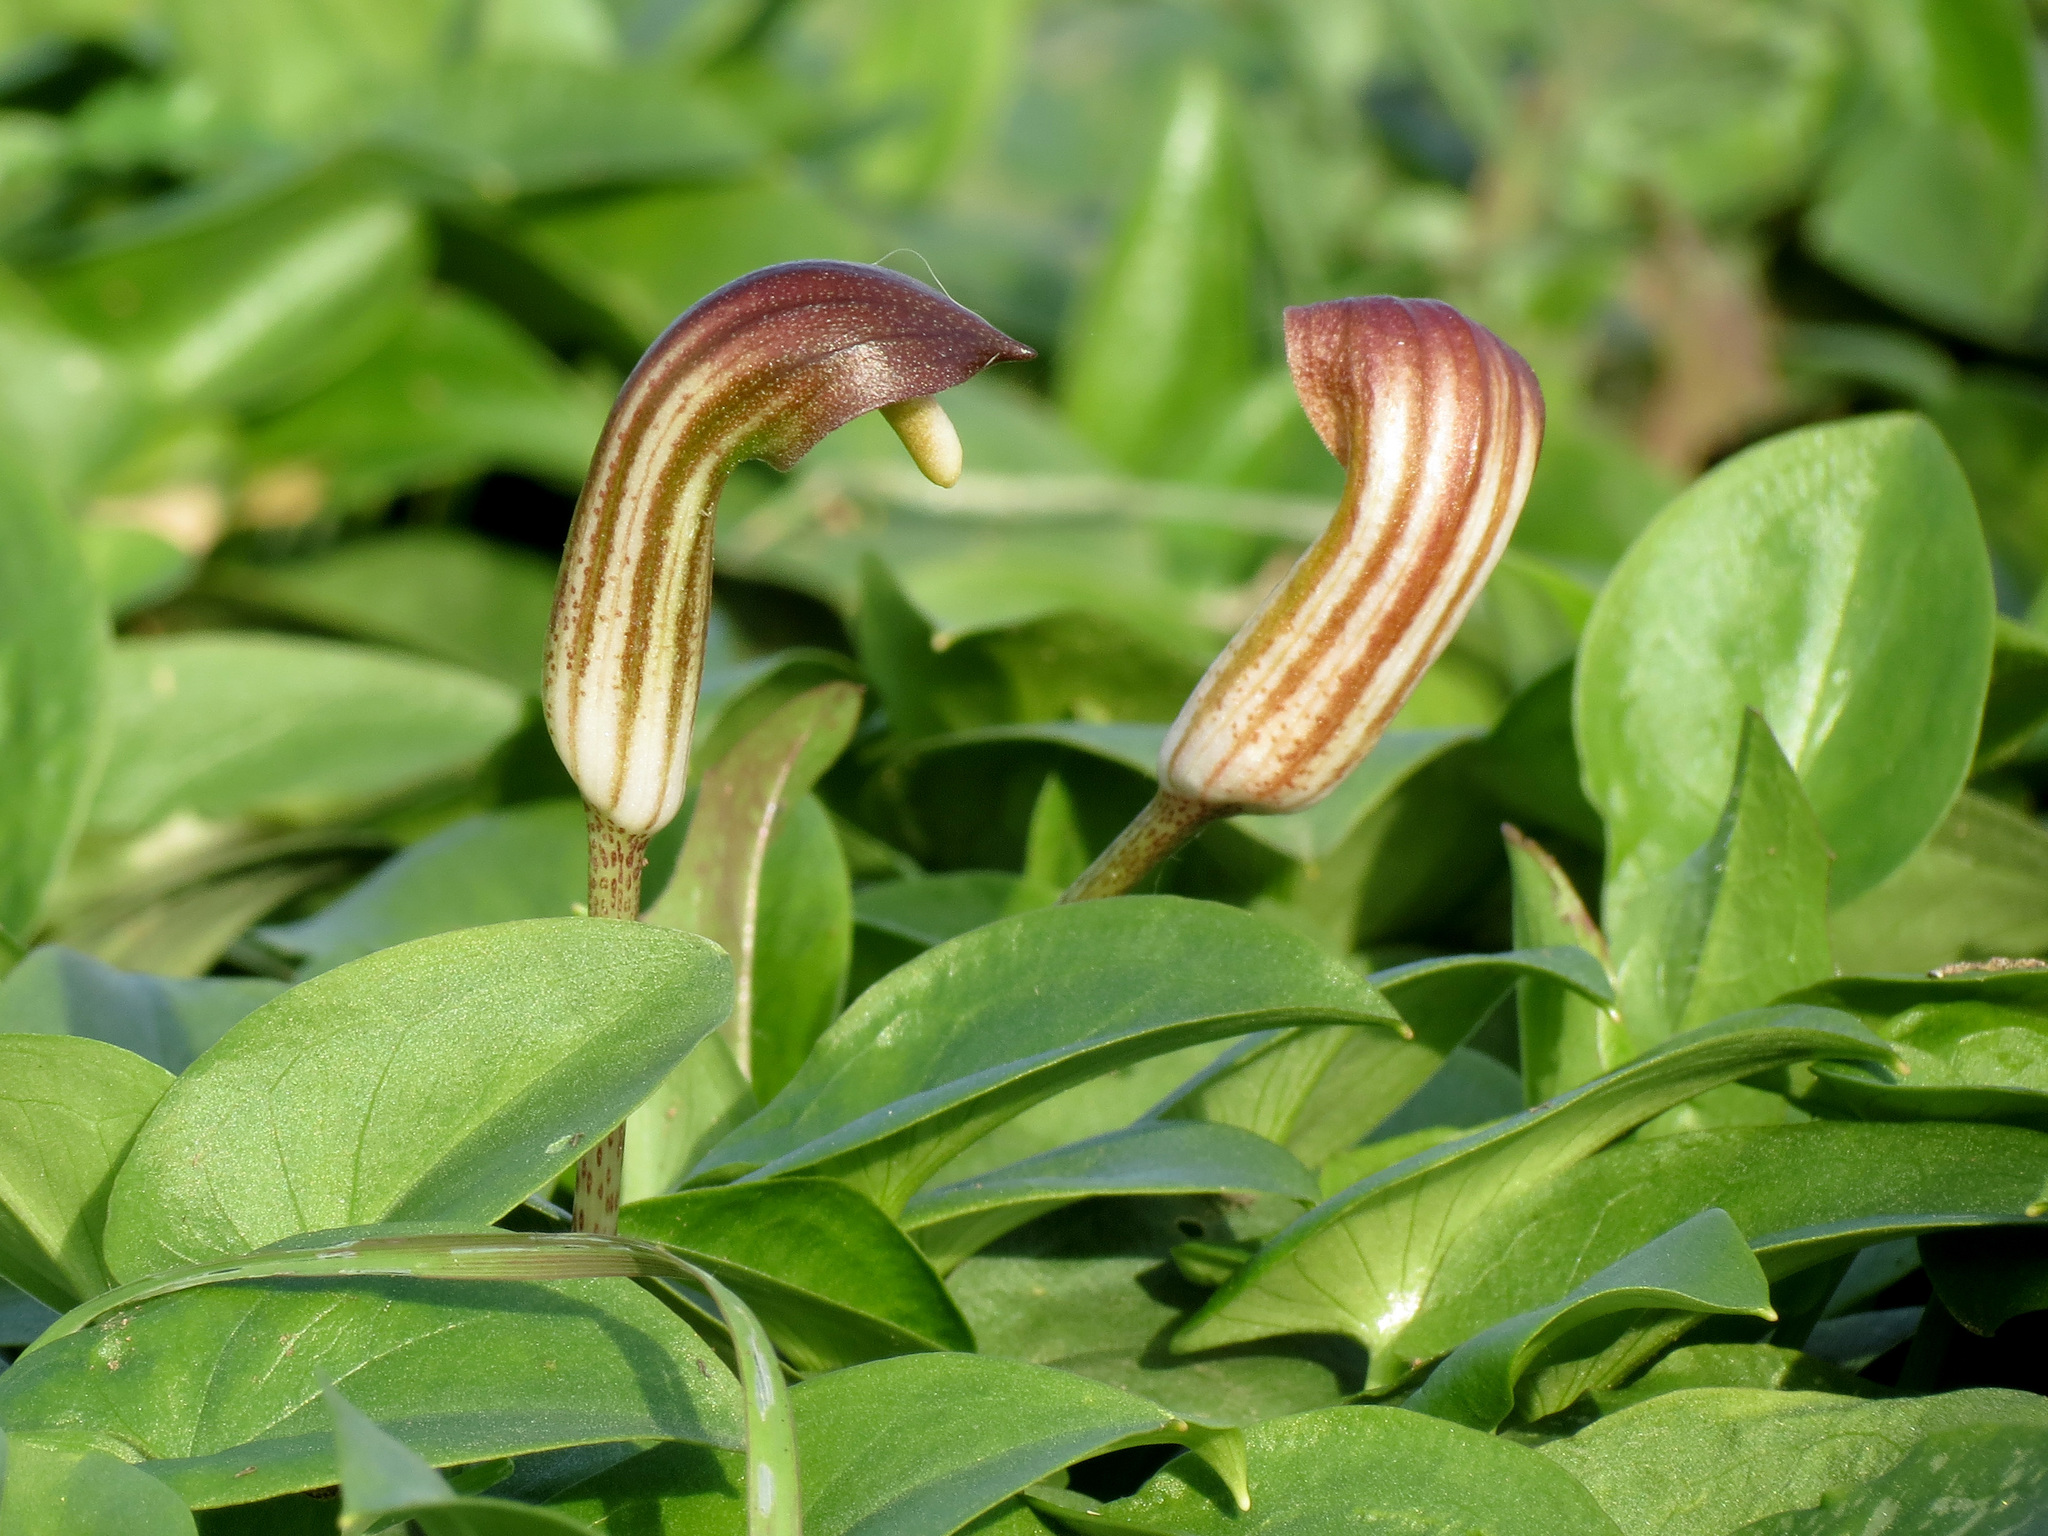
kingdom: Plantae
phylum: Tracheophyta
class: Liliopsida
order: Alismatales
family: Araceae
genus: Arisarum
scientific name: Arisarum vulgare
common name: Common arisarum
